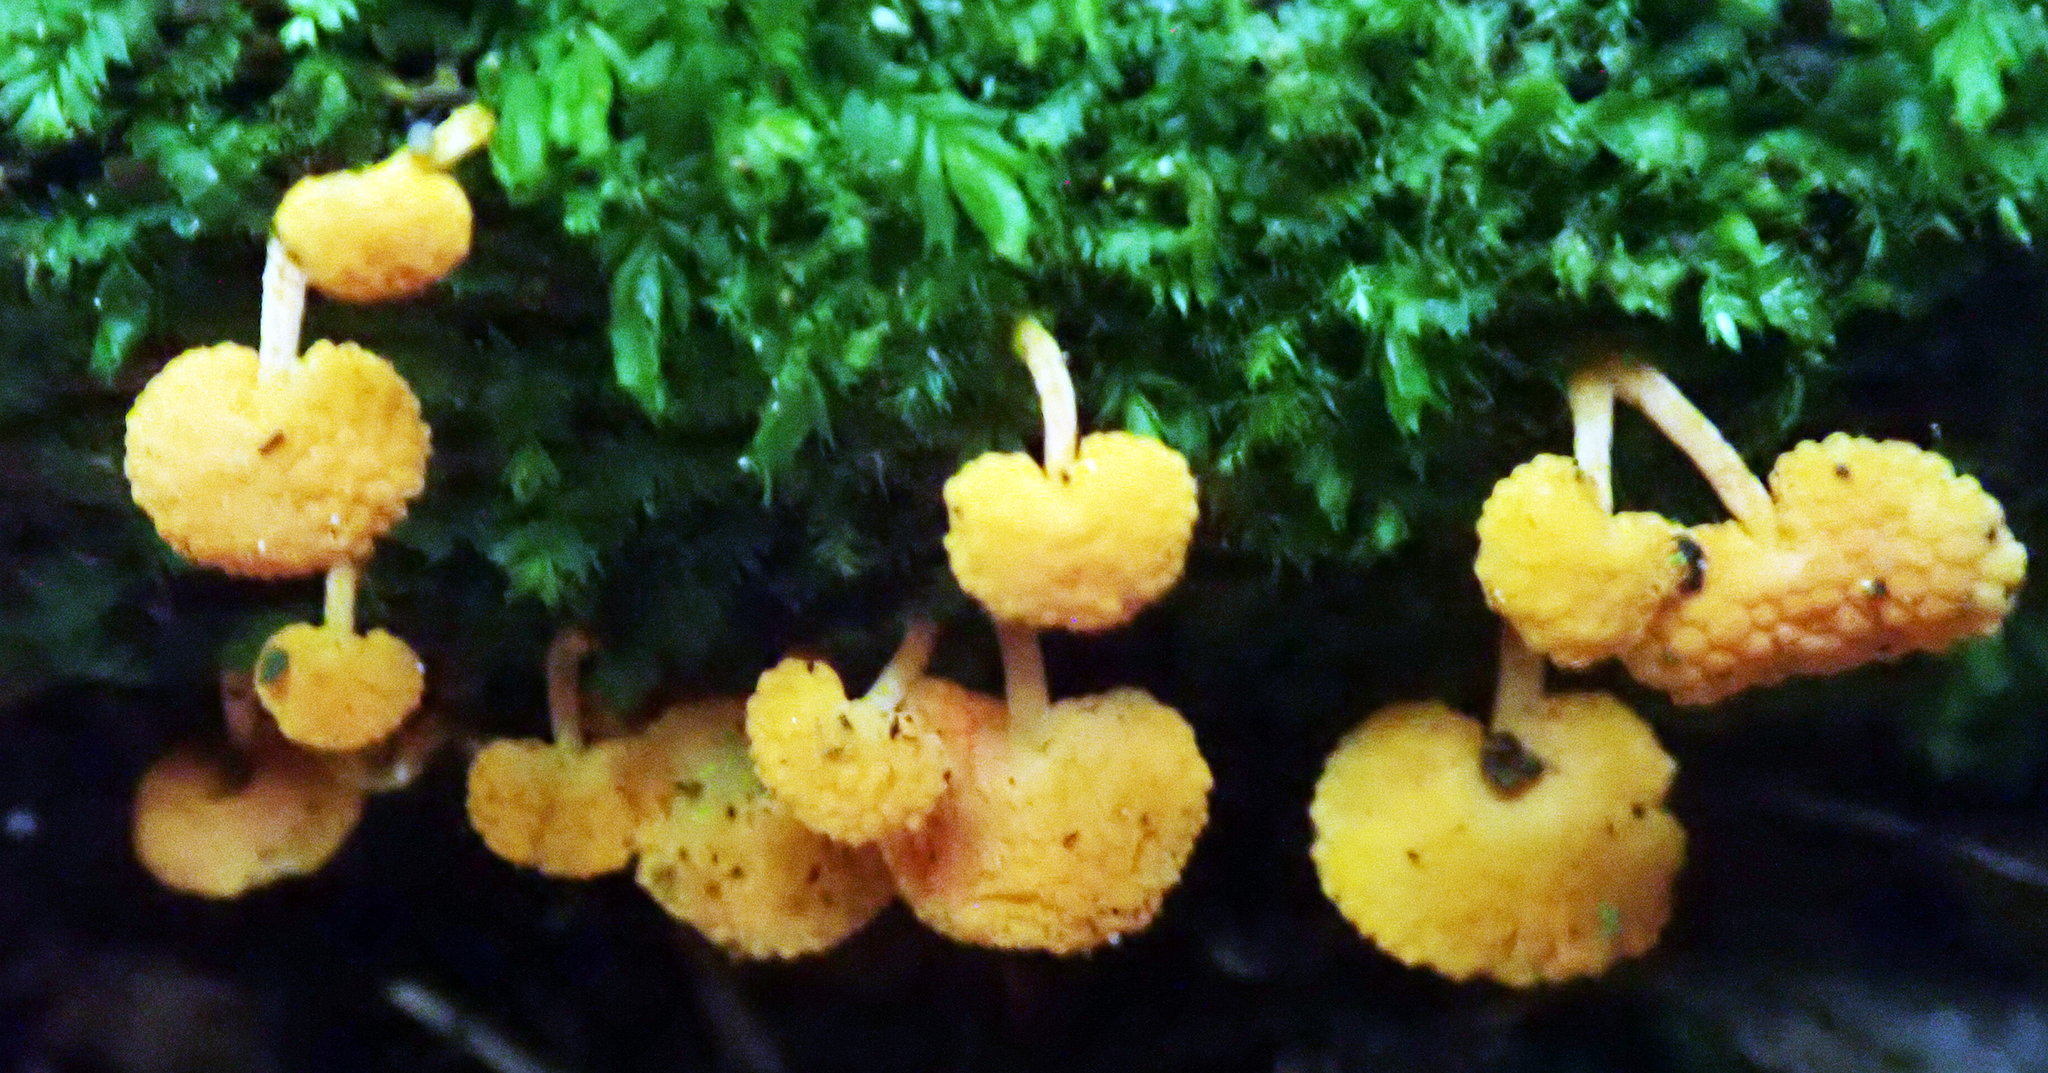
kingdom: Fungi
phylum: Basidiomycota
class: Agaricomycetes
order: Agaricales
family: Mycenaceae
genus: Favolaschia
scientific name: Favolaschia claudopus
